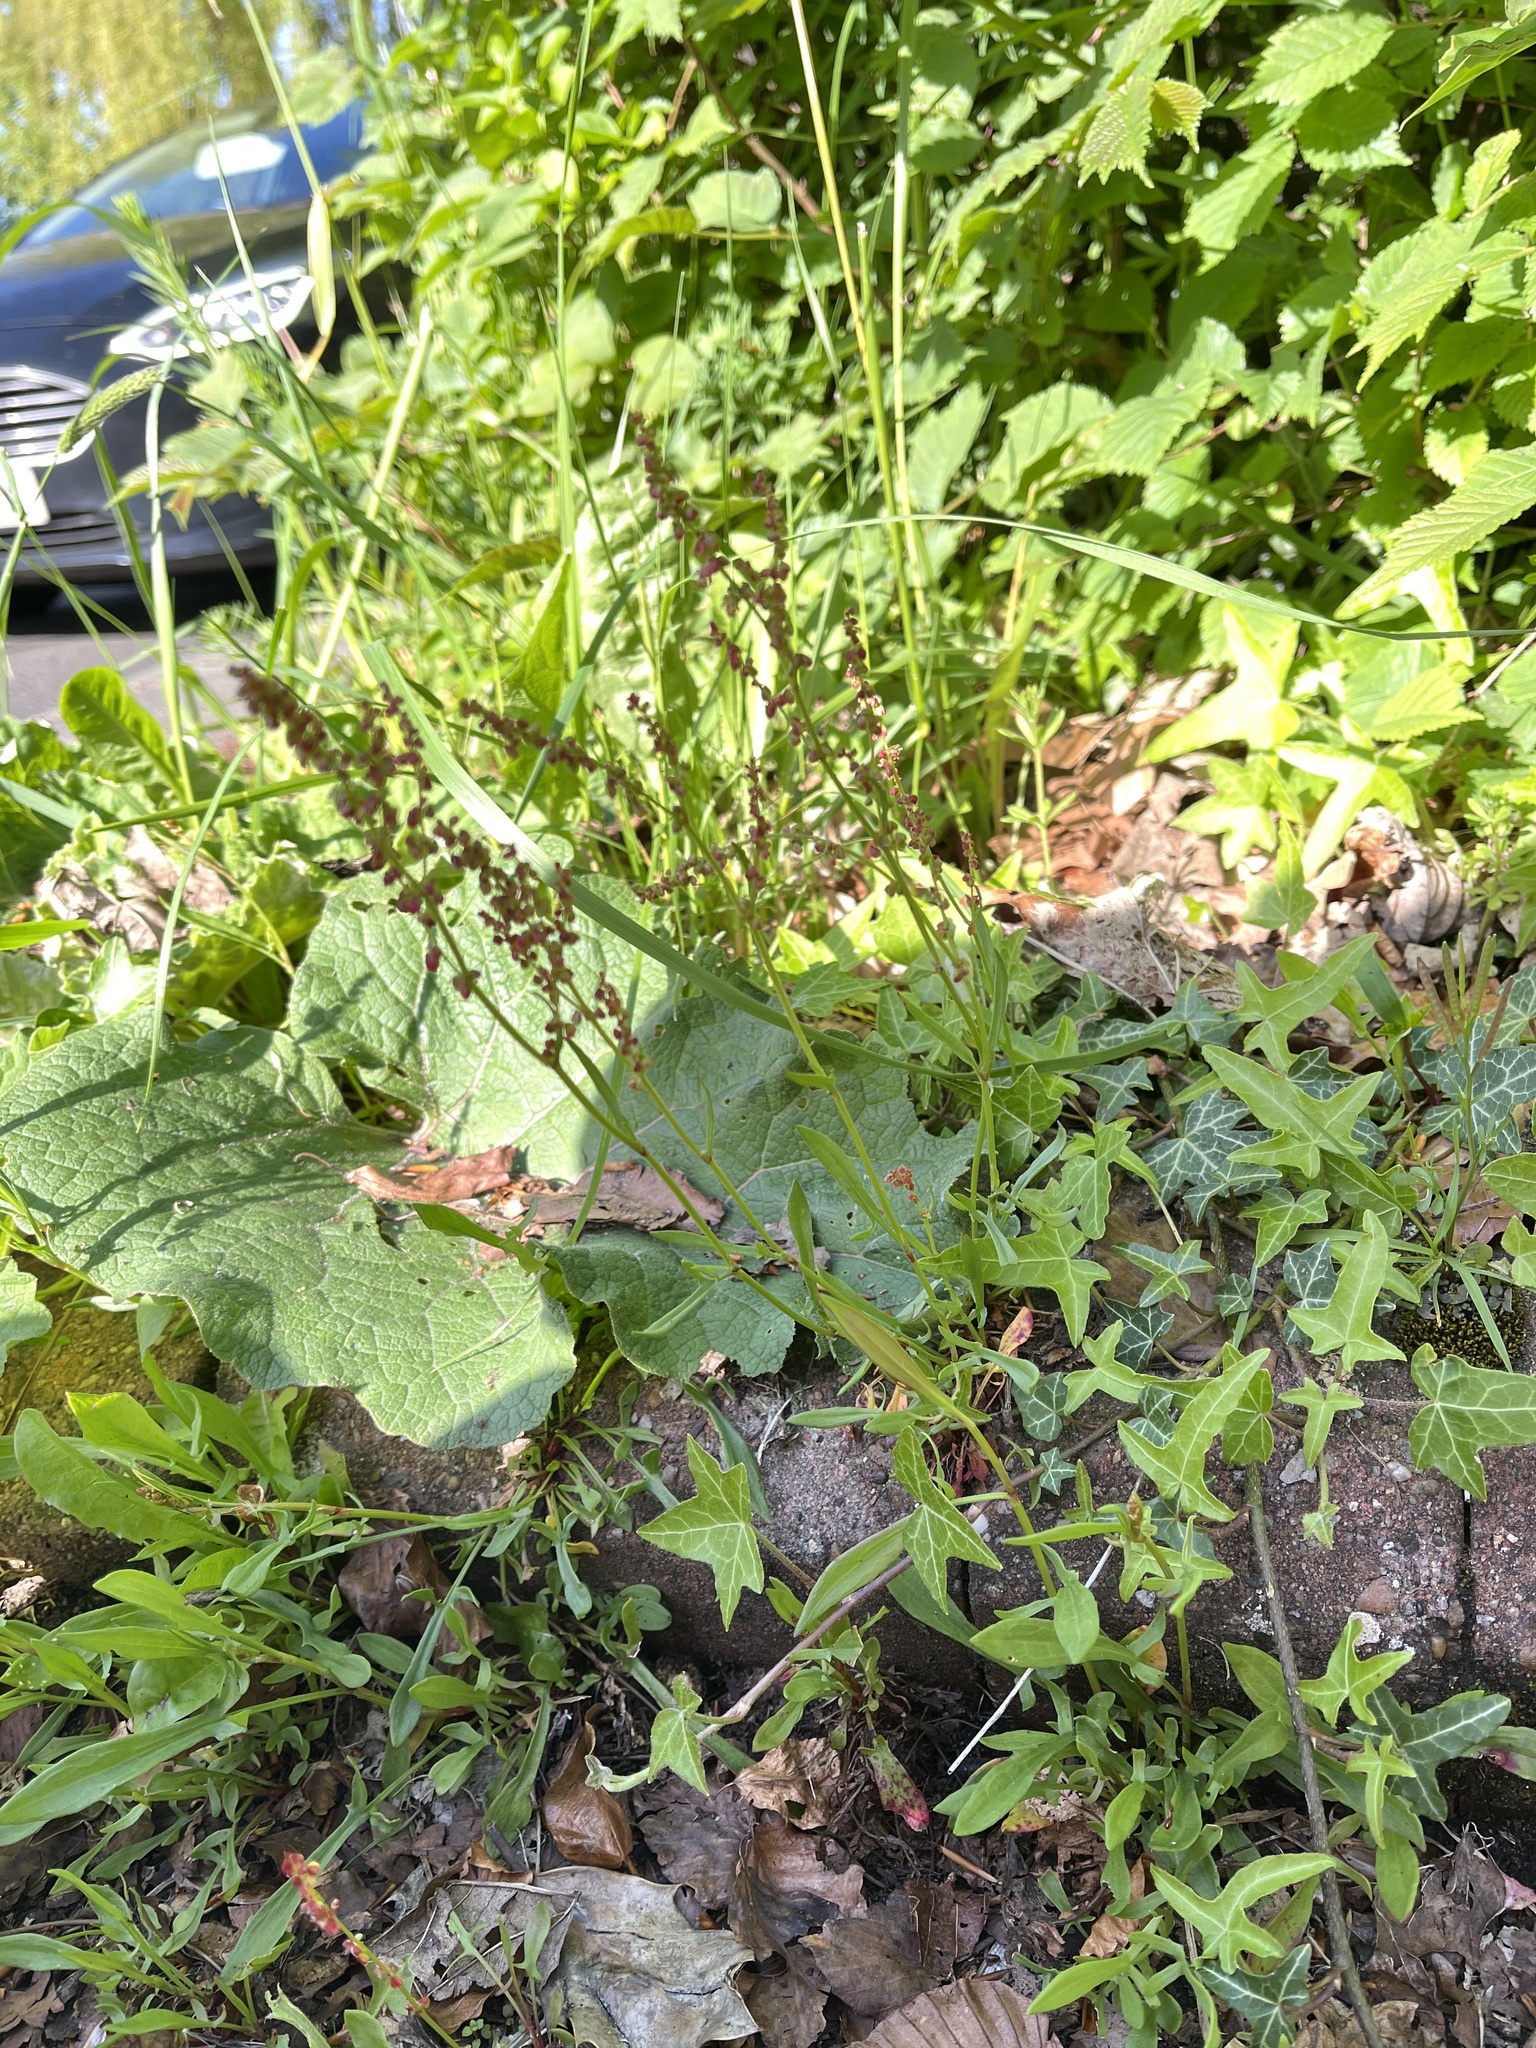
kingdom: Plantae
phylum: Tracheophyta
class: Magnoliopsida
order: Caryophyllales
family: Polygonaceae
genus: Rumex
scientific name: Rumex acetosella
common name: Common sheep sorrel
